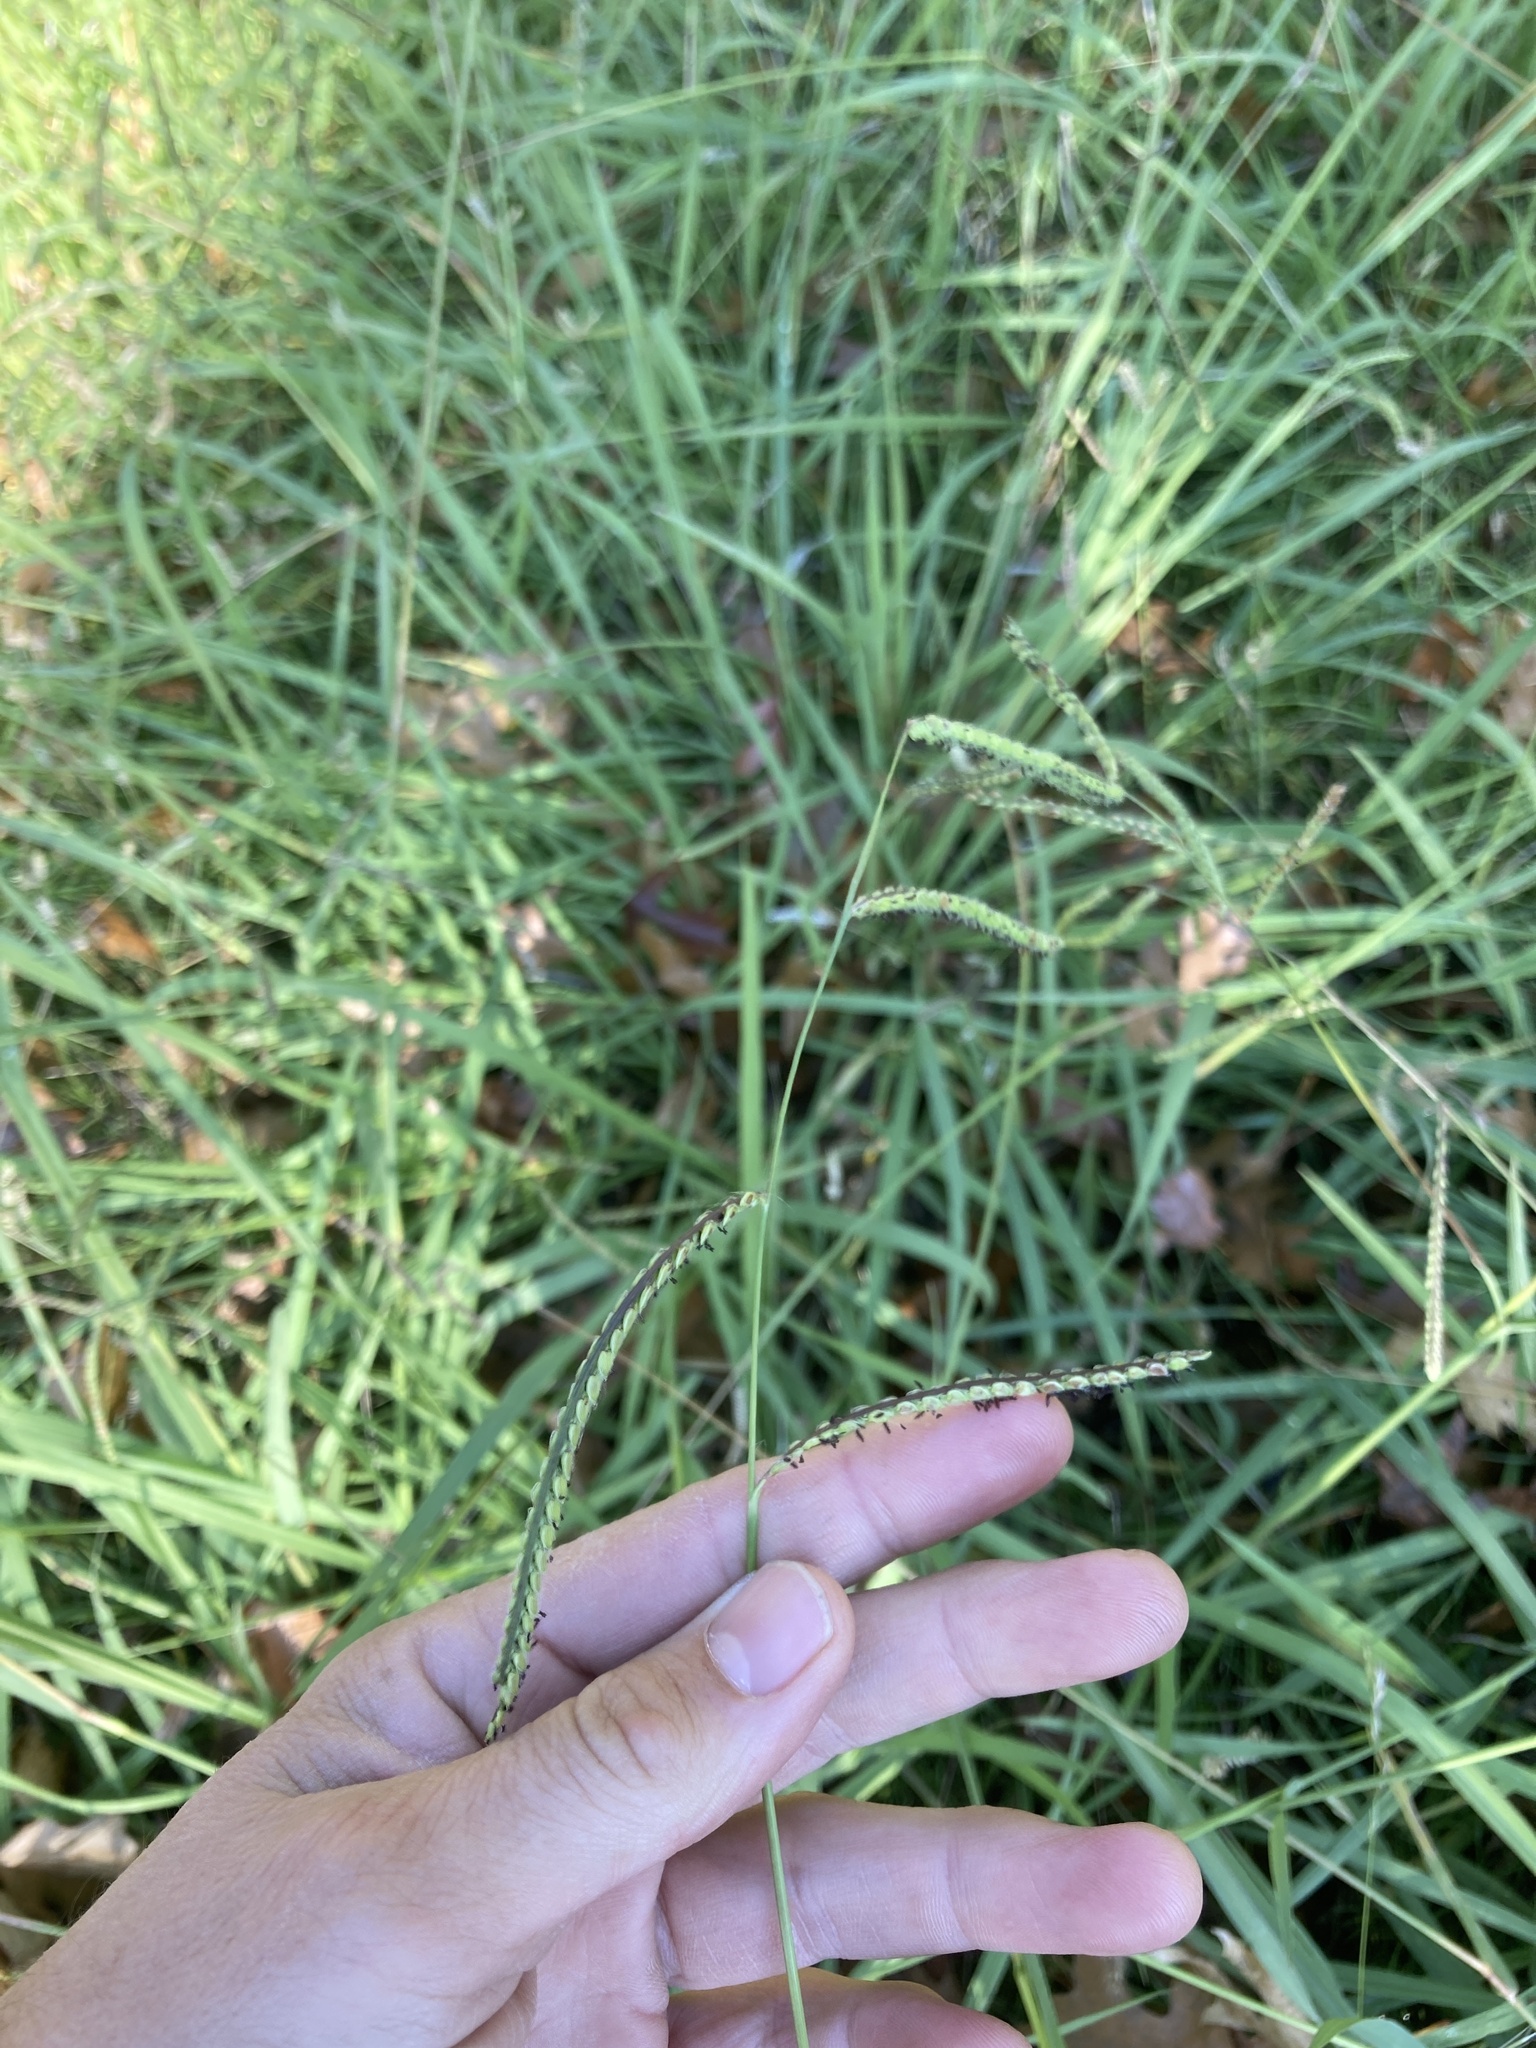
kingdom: Plantae
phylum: Tracheophyta
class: Liliopsida
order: Poales
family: Poaceae
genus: Paspalum
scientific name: Paspalum dilatatum
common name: Dallisgrass
